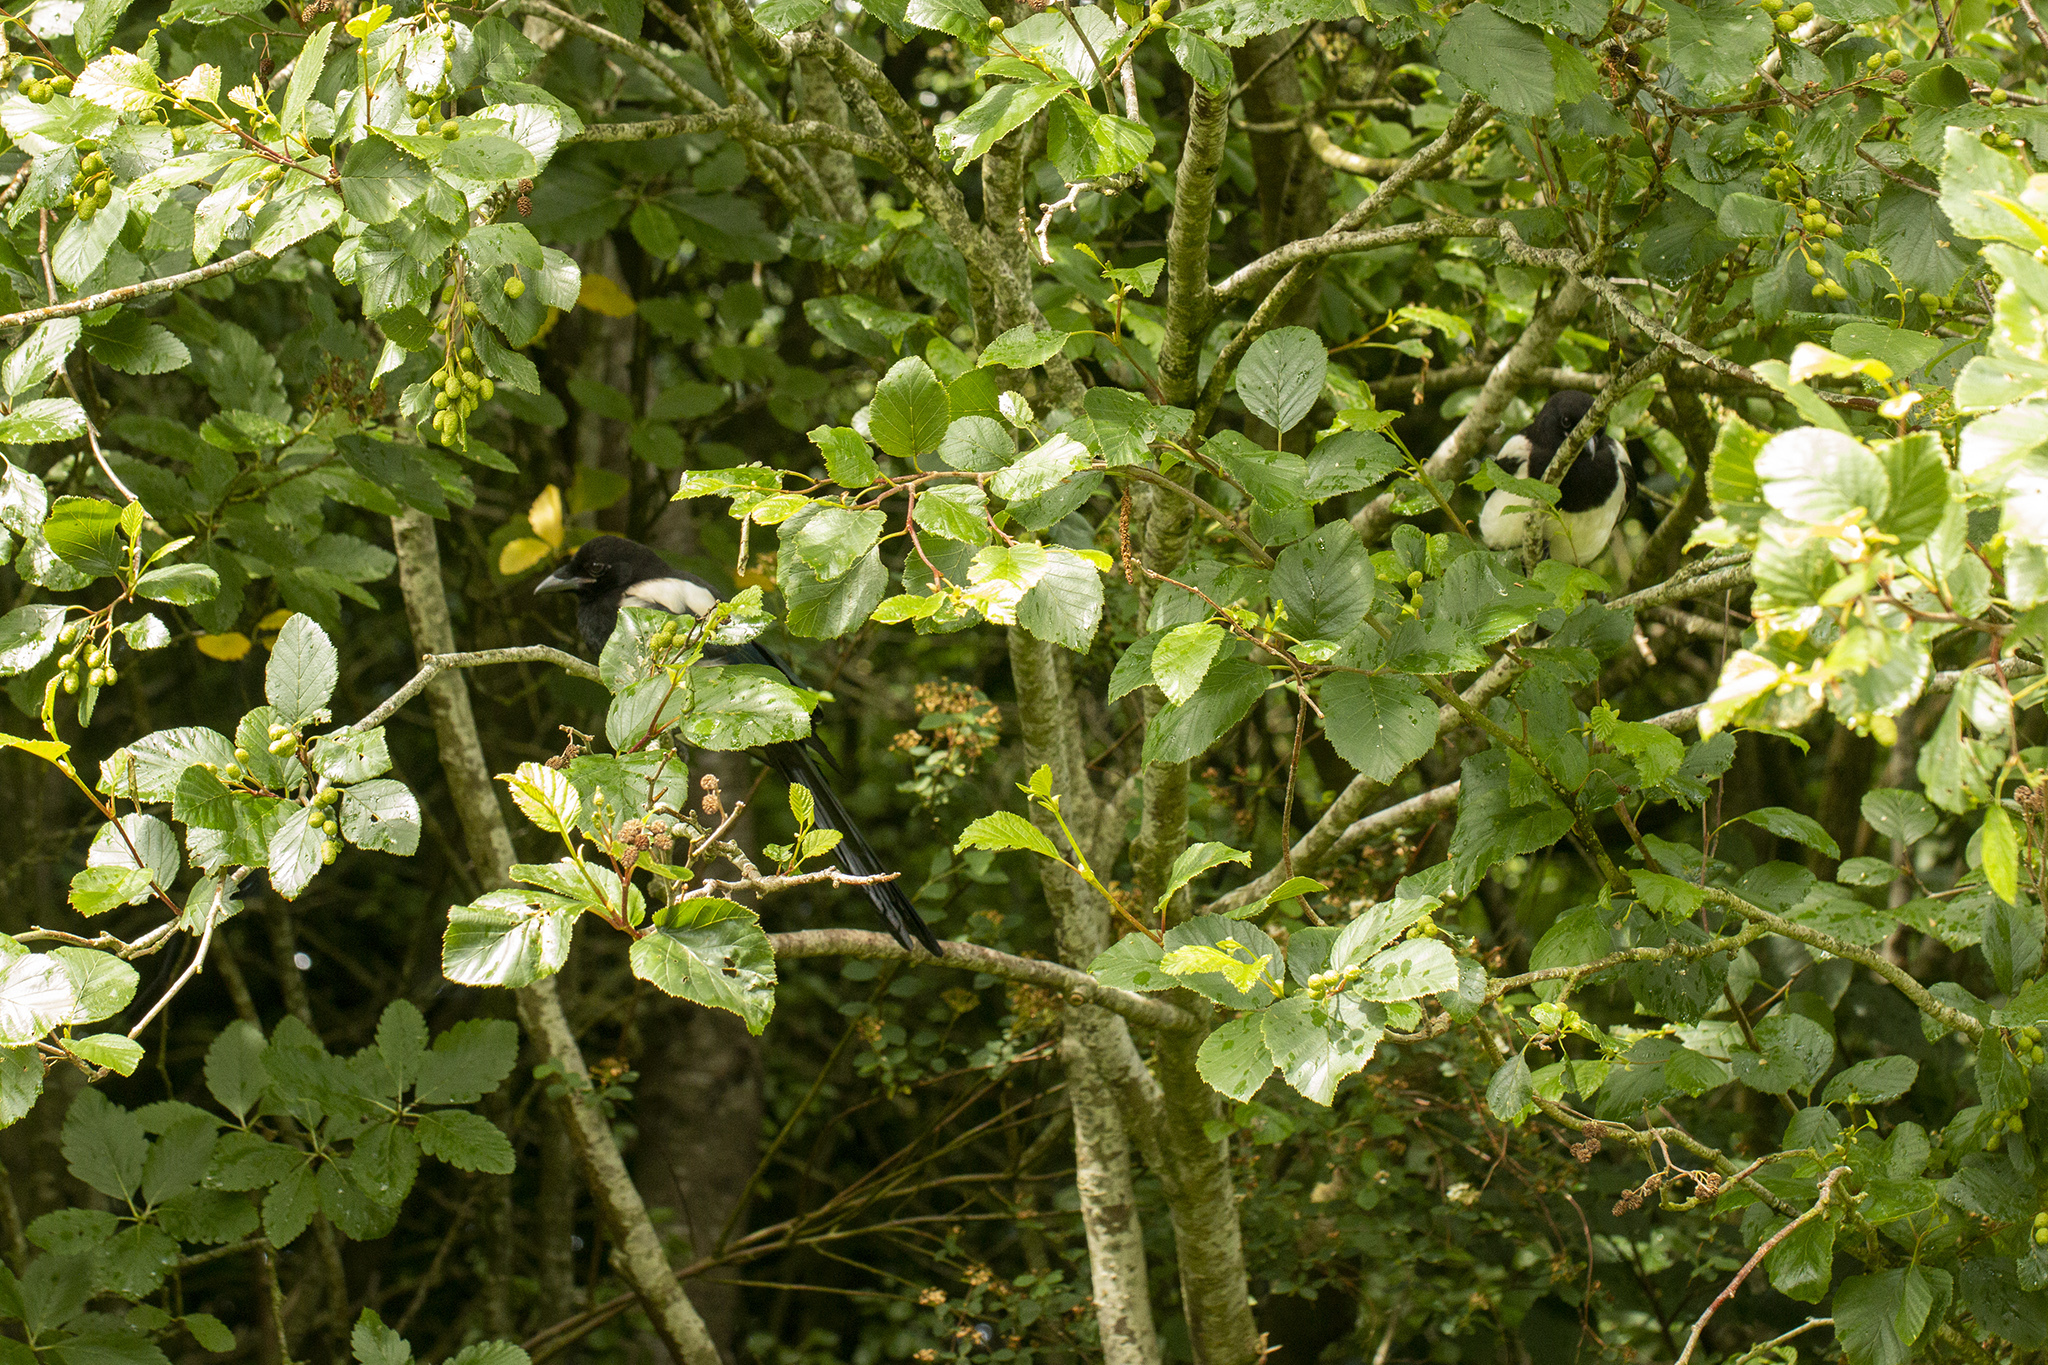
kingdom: Animalia
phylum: Chordata
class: Aves
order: Passeriformes
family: Corvidae
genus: Pica
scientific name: Pica pica
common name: Eurasian magpie
